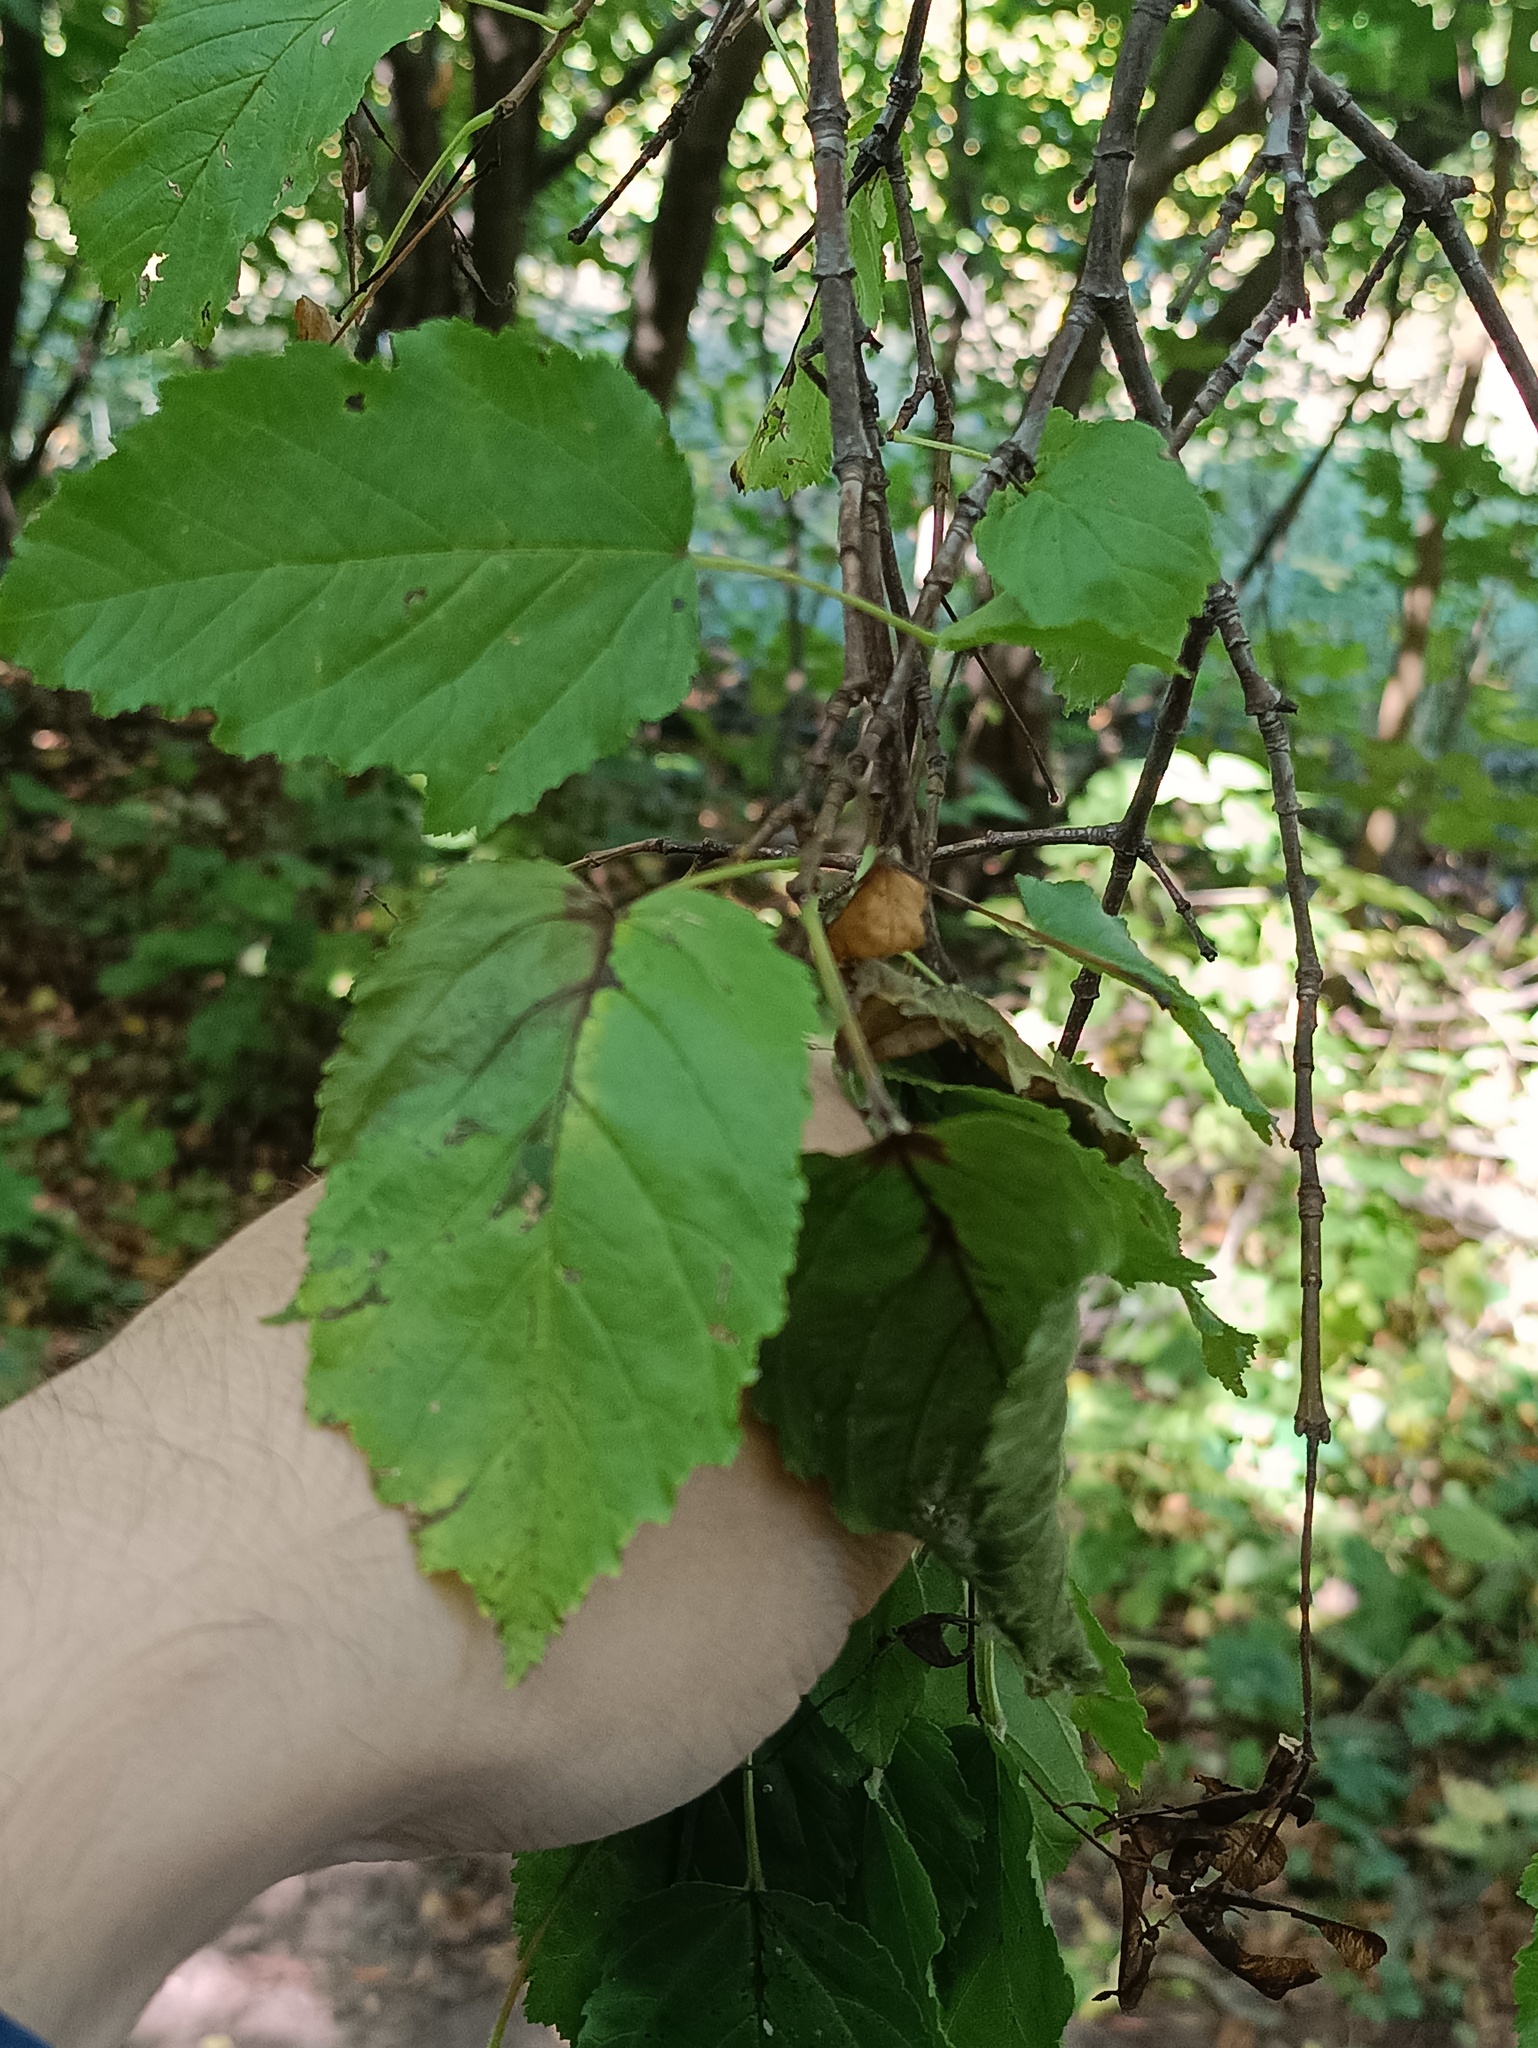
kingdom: Plantae
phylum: Tracheophyta
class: Magnoliopsida
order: Sapindales
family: Sapindaceae
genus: Acer
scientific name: Acer tataricum
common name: Tartar maple
